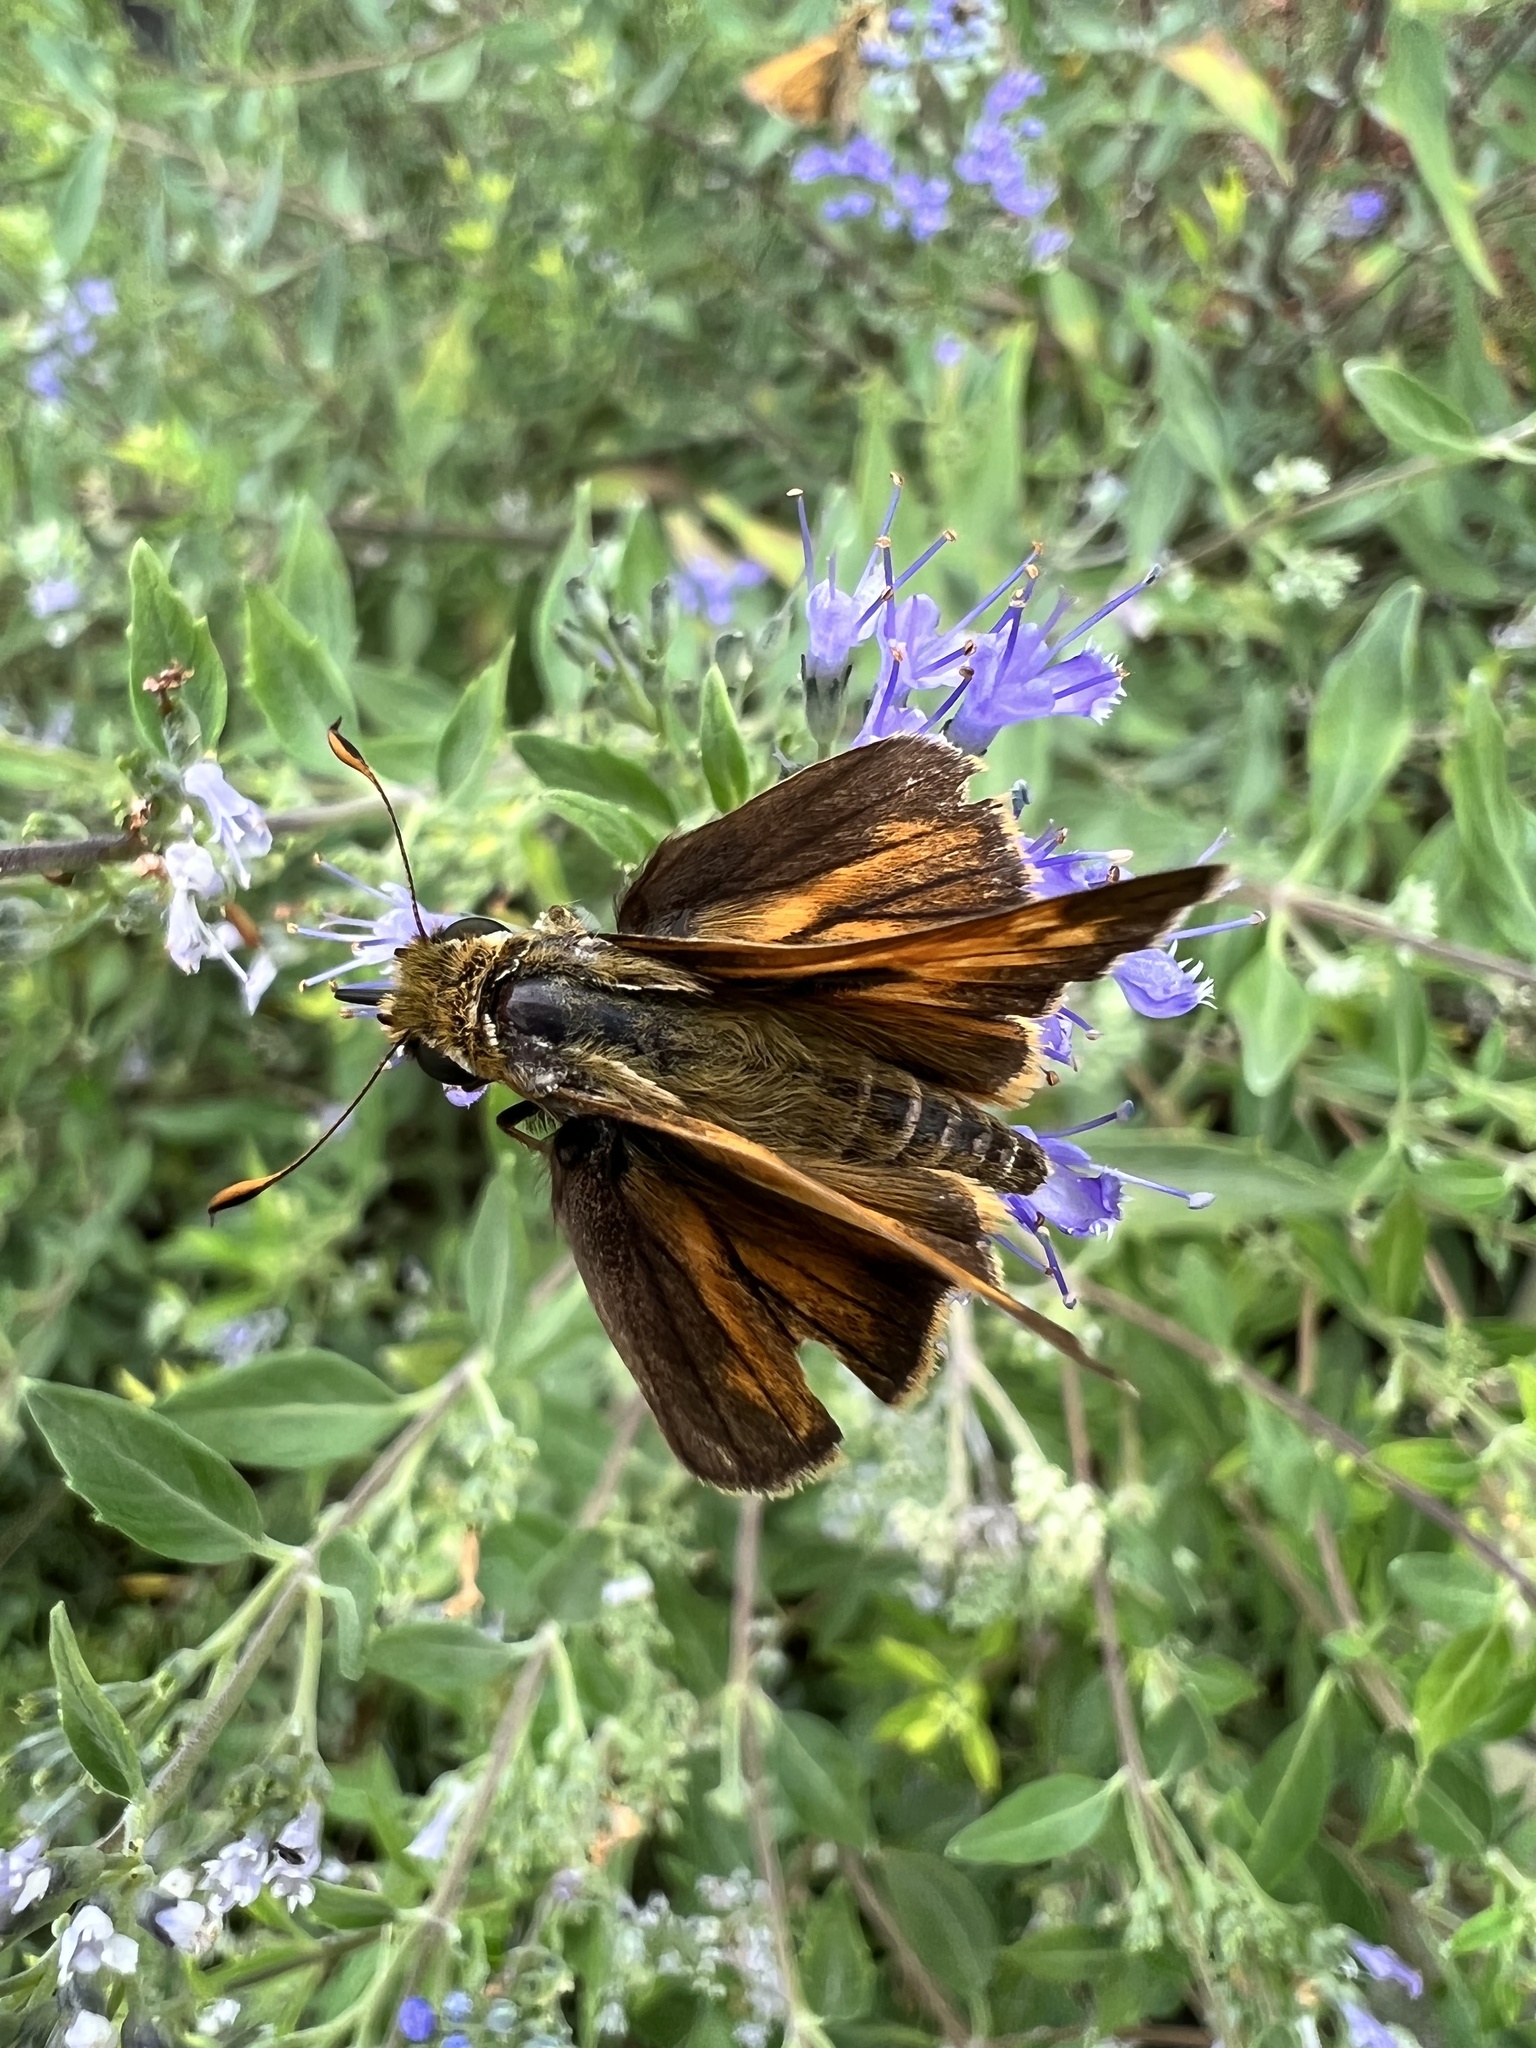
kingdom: Animalia
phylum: Arthropoda
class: Insecta
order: Lepidoptera
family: Hesperiidae
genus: Atalopedes
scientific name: Atalopedes
